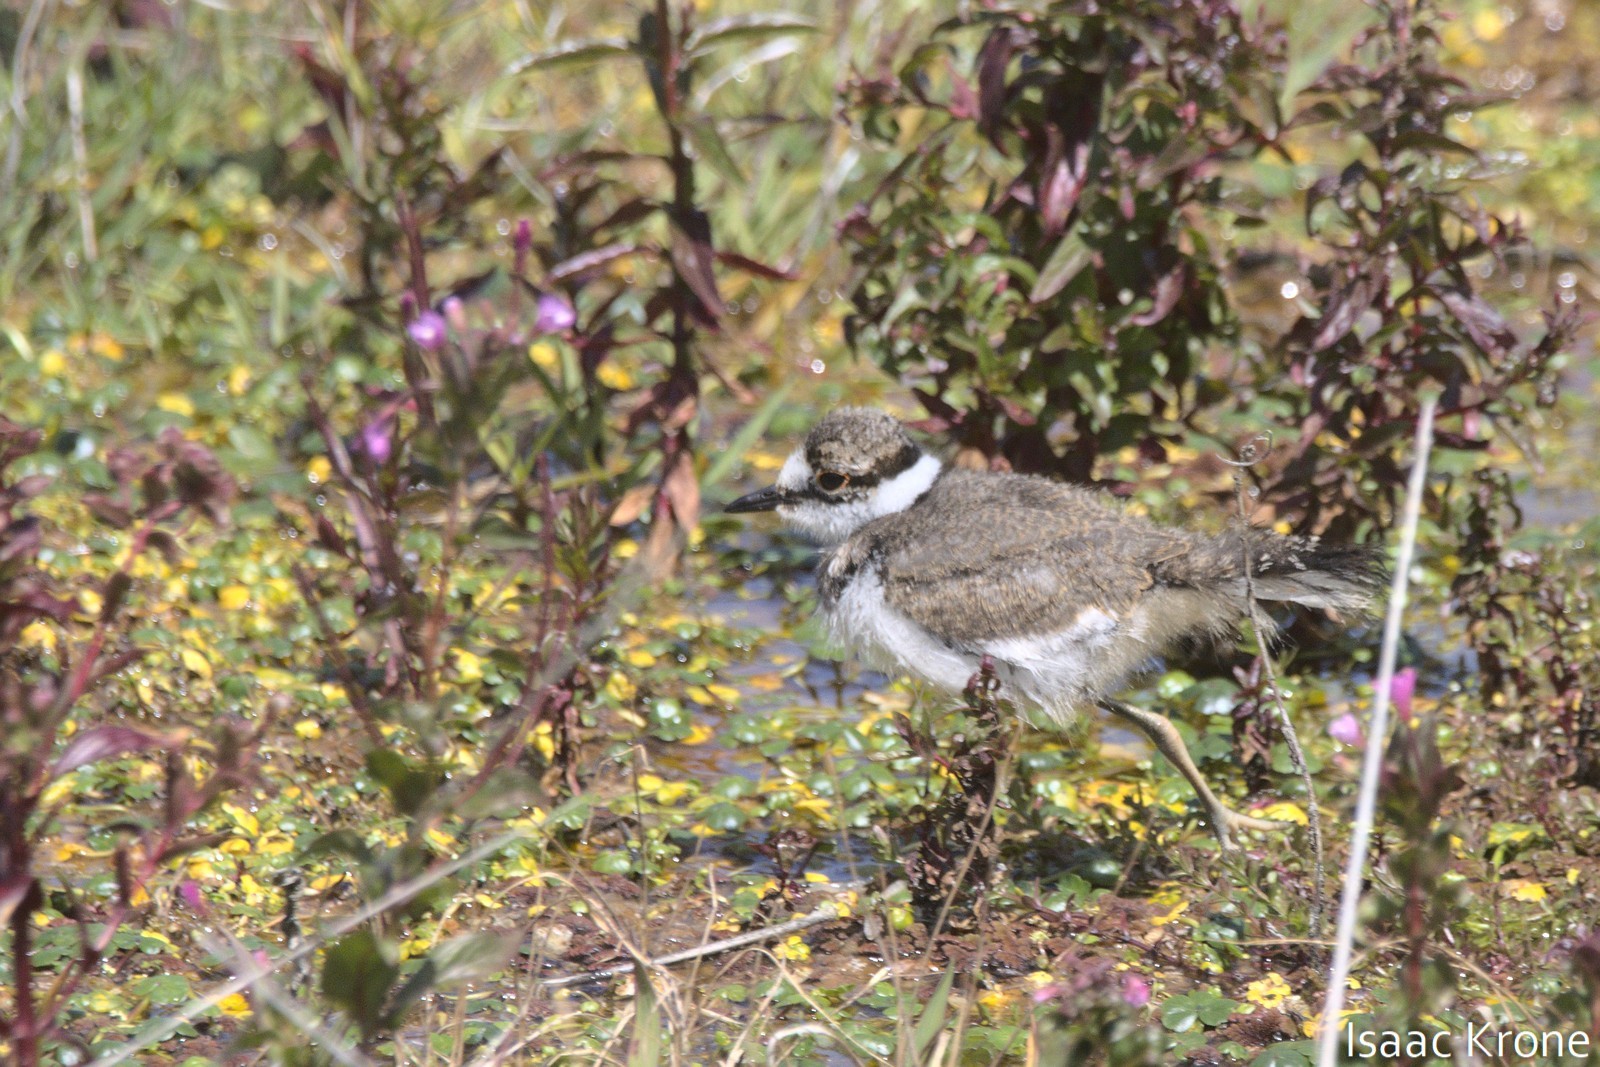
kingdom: Animalia
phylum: Chordata
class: Aves
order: Charadriiformes
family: Charadriidae
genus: Charadrius
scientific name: Charadrius vociferus
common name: Killdeer
